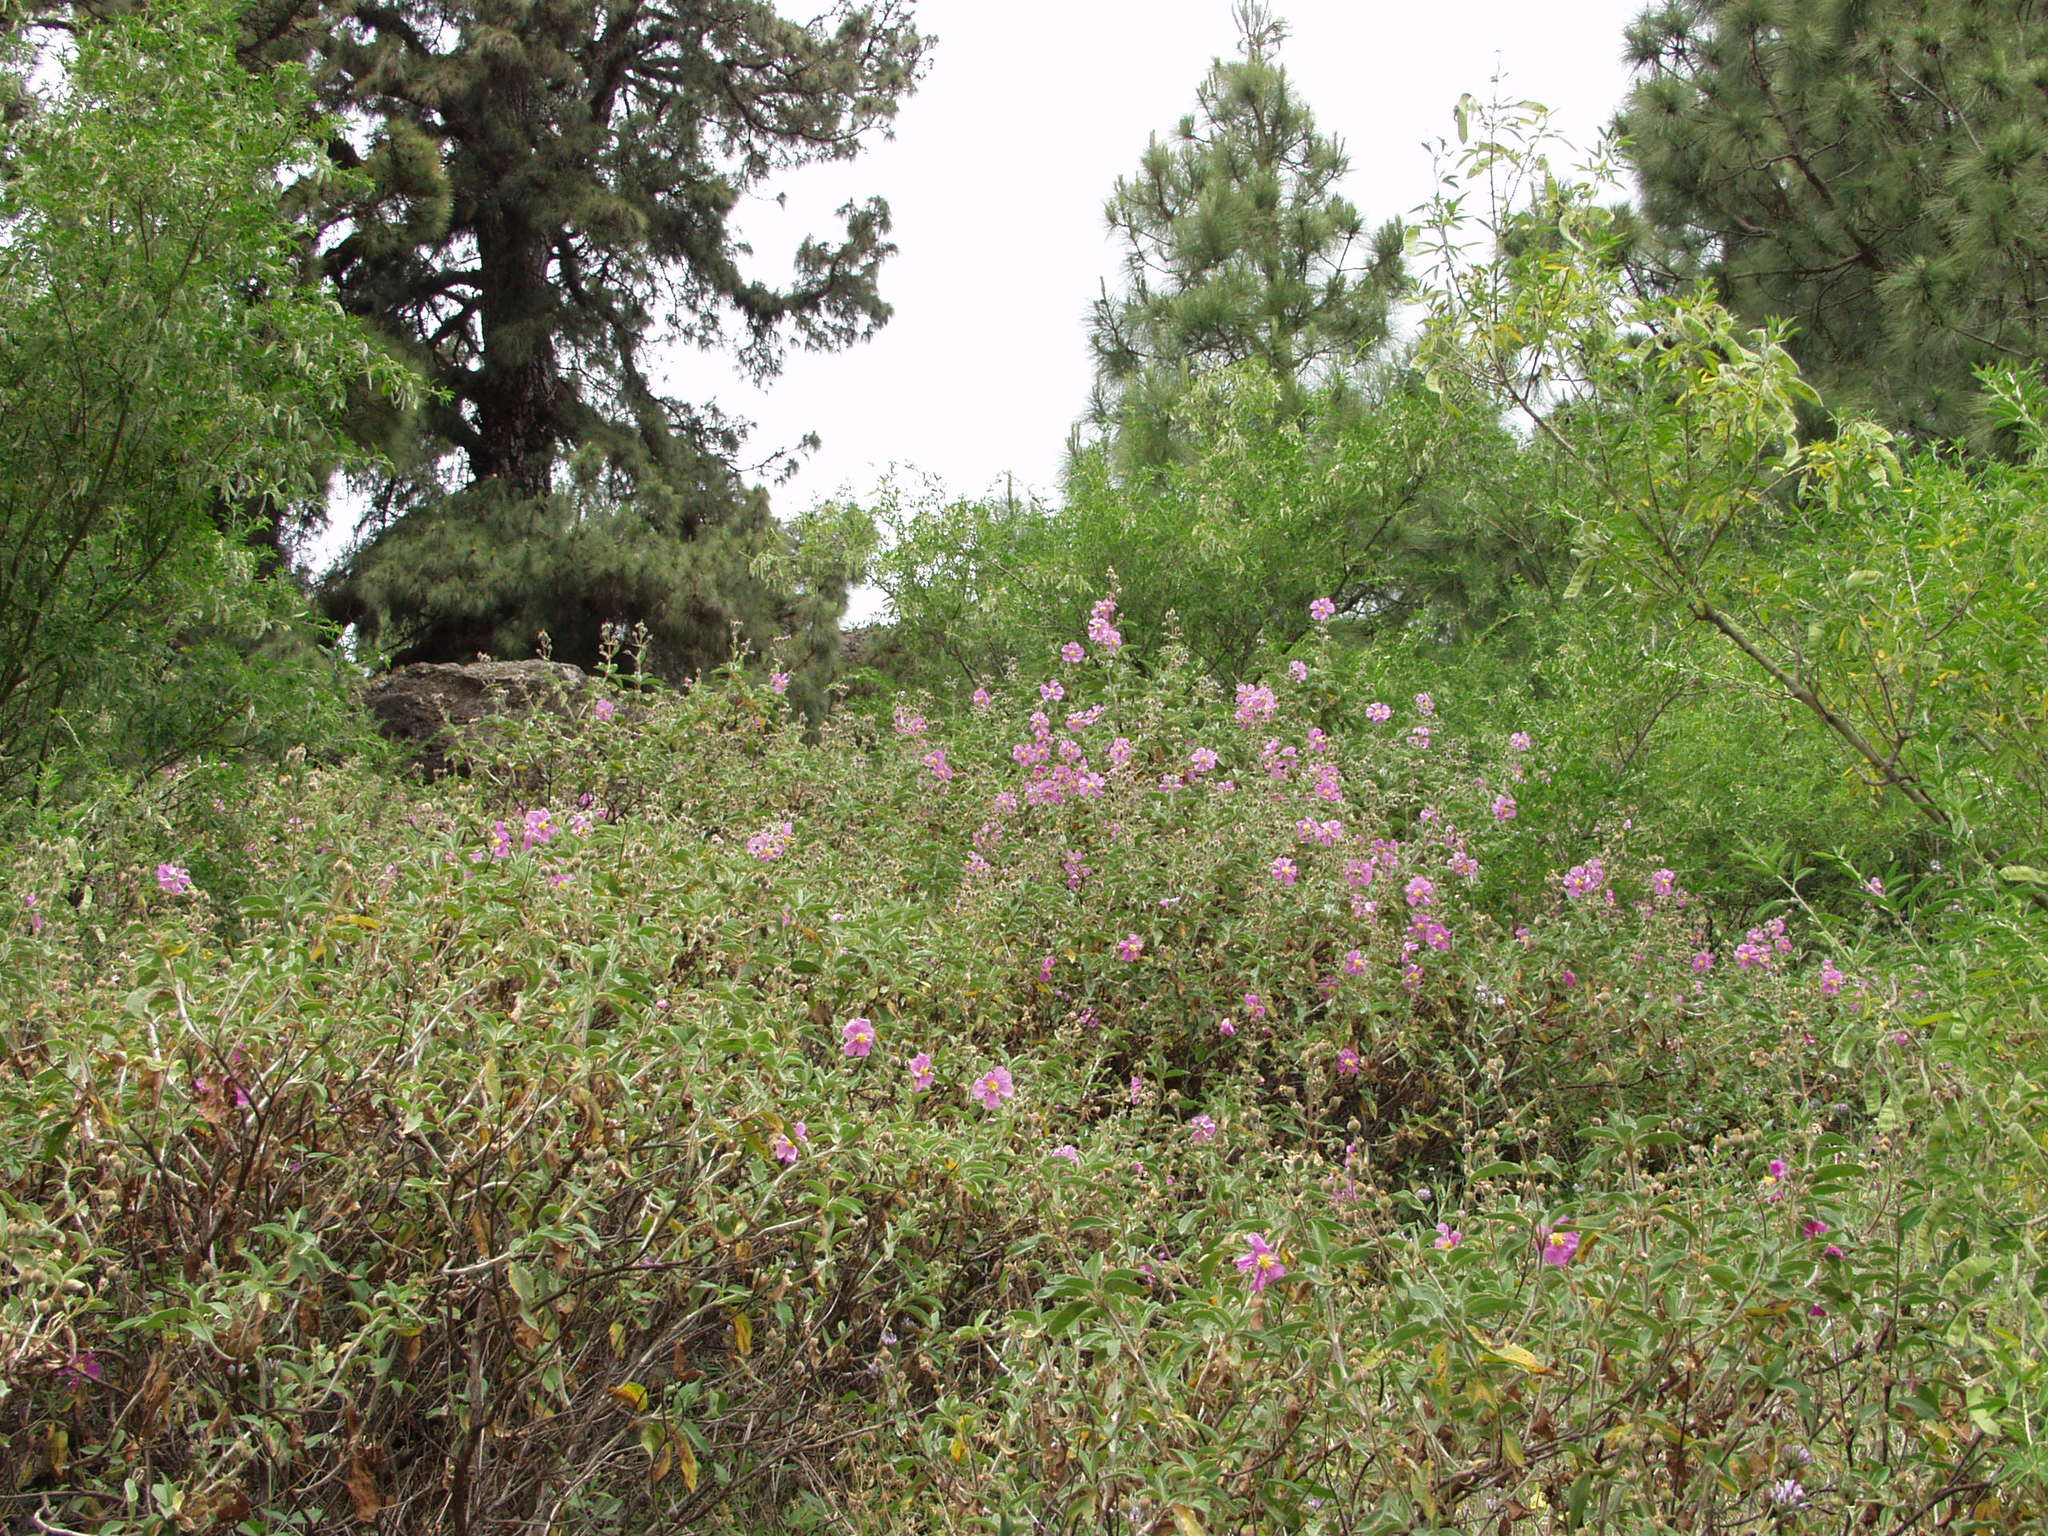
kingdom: Plantae
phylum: Tracheophyta
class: Magnoliopsida
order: Malvales
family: Cistaceae
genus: Cistus
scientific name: Cistus symphytifolius
